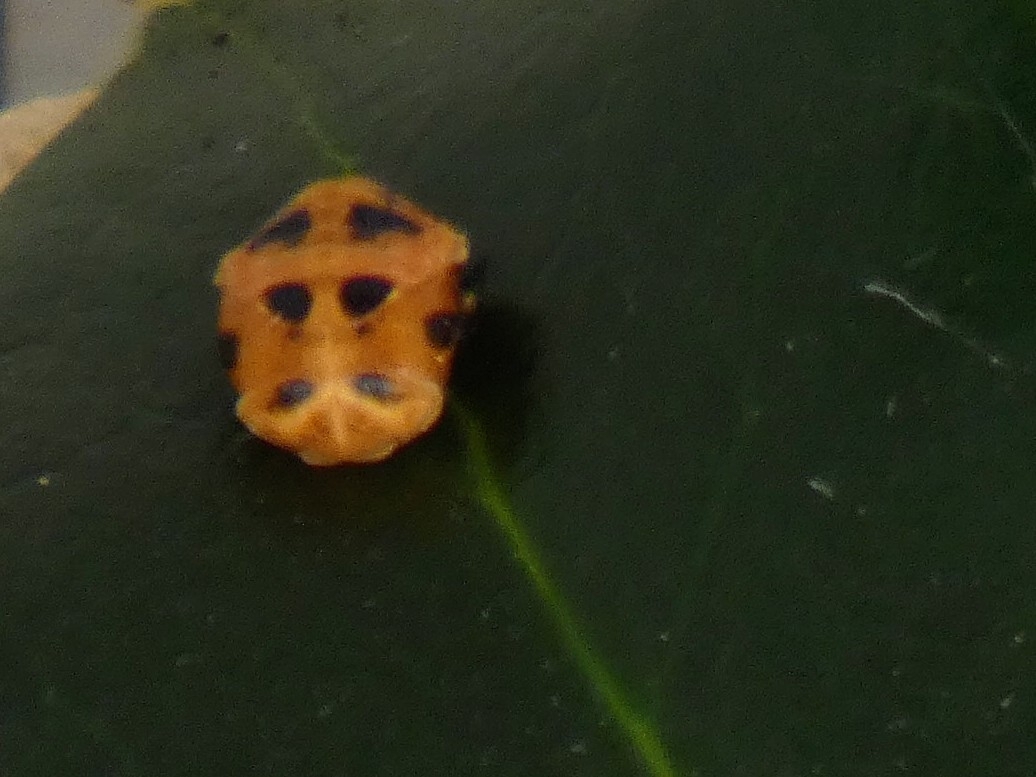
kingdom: Animalia
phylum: Arthropoda
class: Insecta
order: Coleoptera
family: Coccinellidae
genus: Harmonia
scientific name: Harmonia axyridis
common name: Harlequin ladybird
